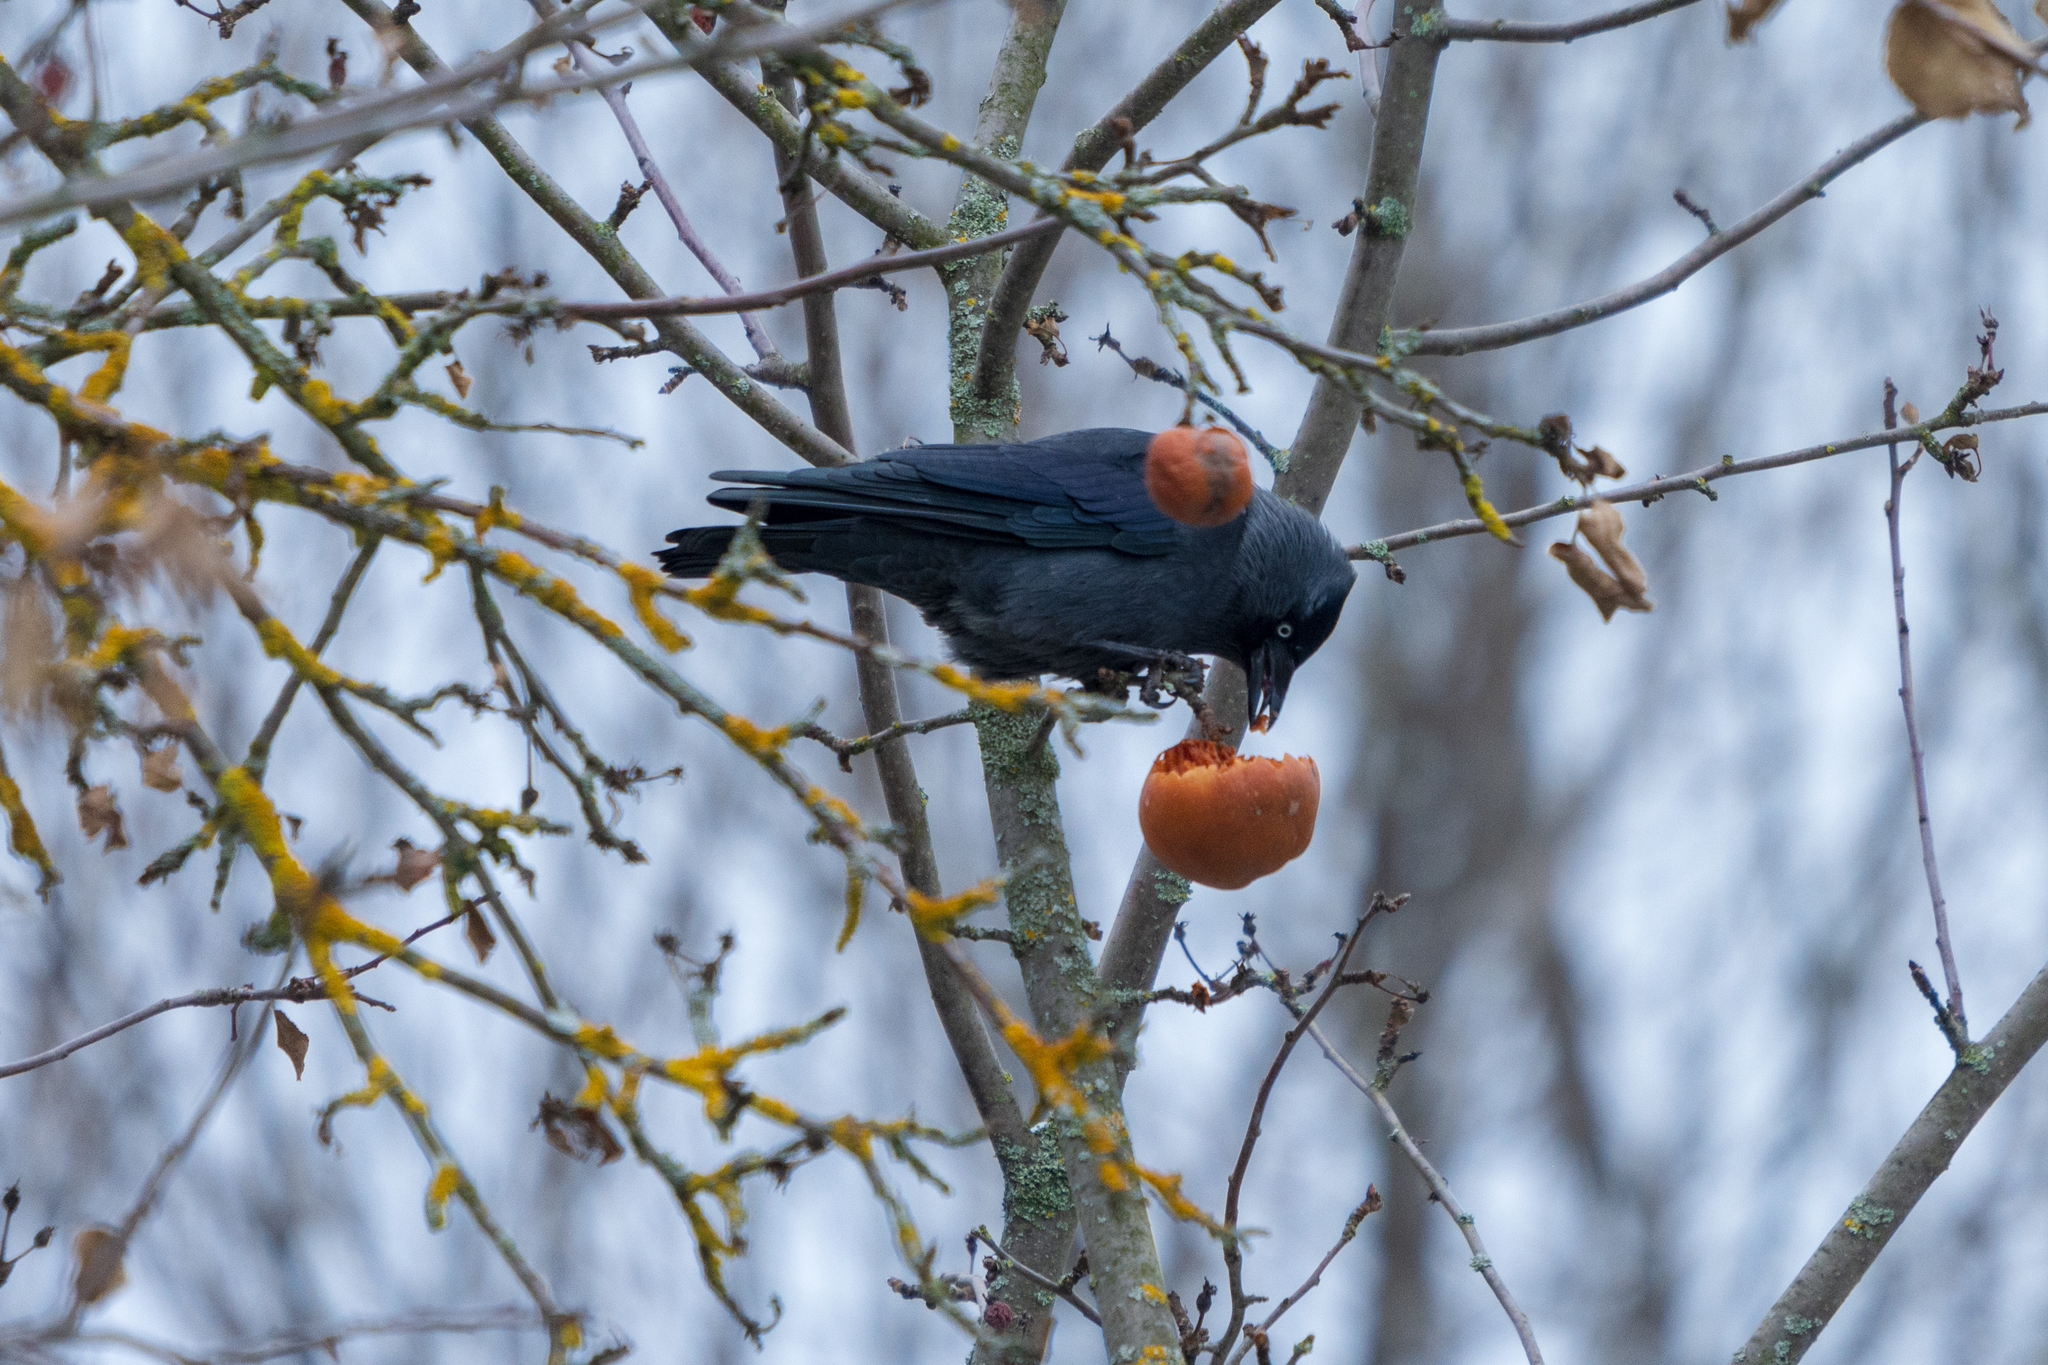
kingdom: Animalia
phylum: Chordata
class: Aves
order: Passeriformes
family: Corvidae
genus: Coloeus
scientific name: Coloeus monedula
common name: Western jackdaw
